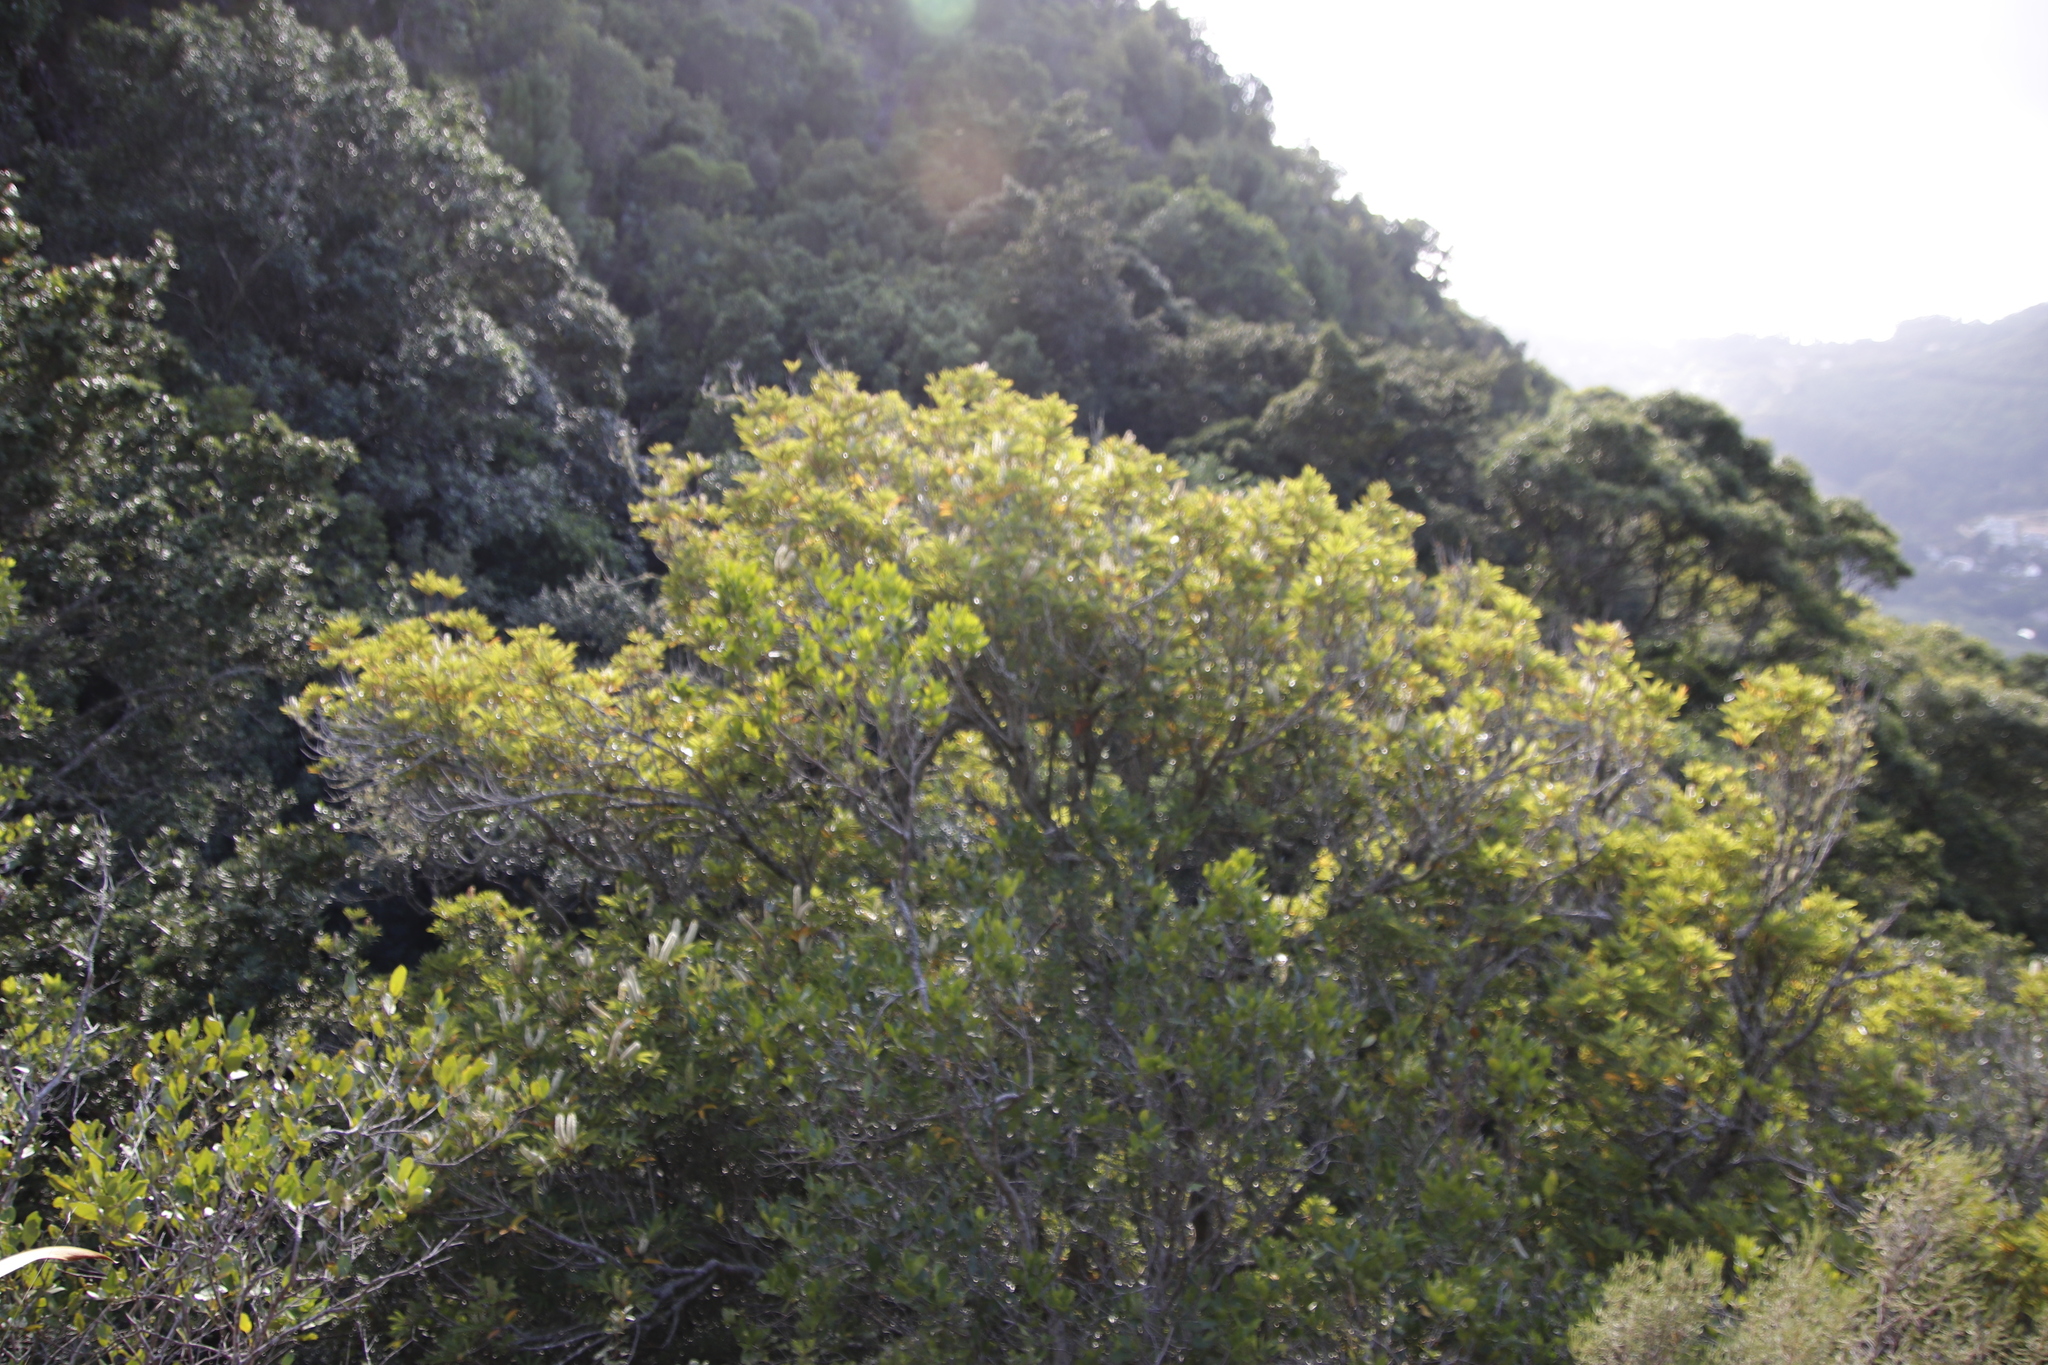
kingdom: Plantae
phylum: Tracheophyta
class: Magnoliopsida
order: Oxalidales
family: Cunoniaceae
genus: Cunonia
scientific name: Cunonia capensis
